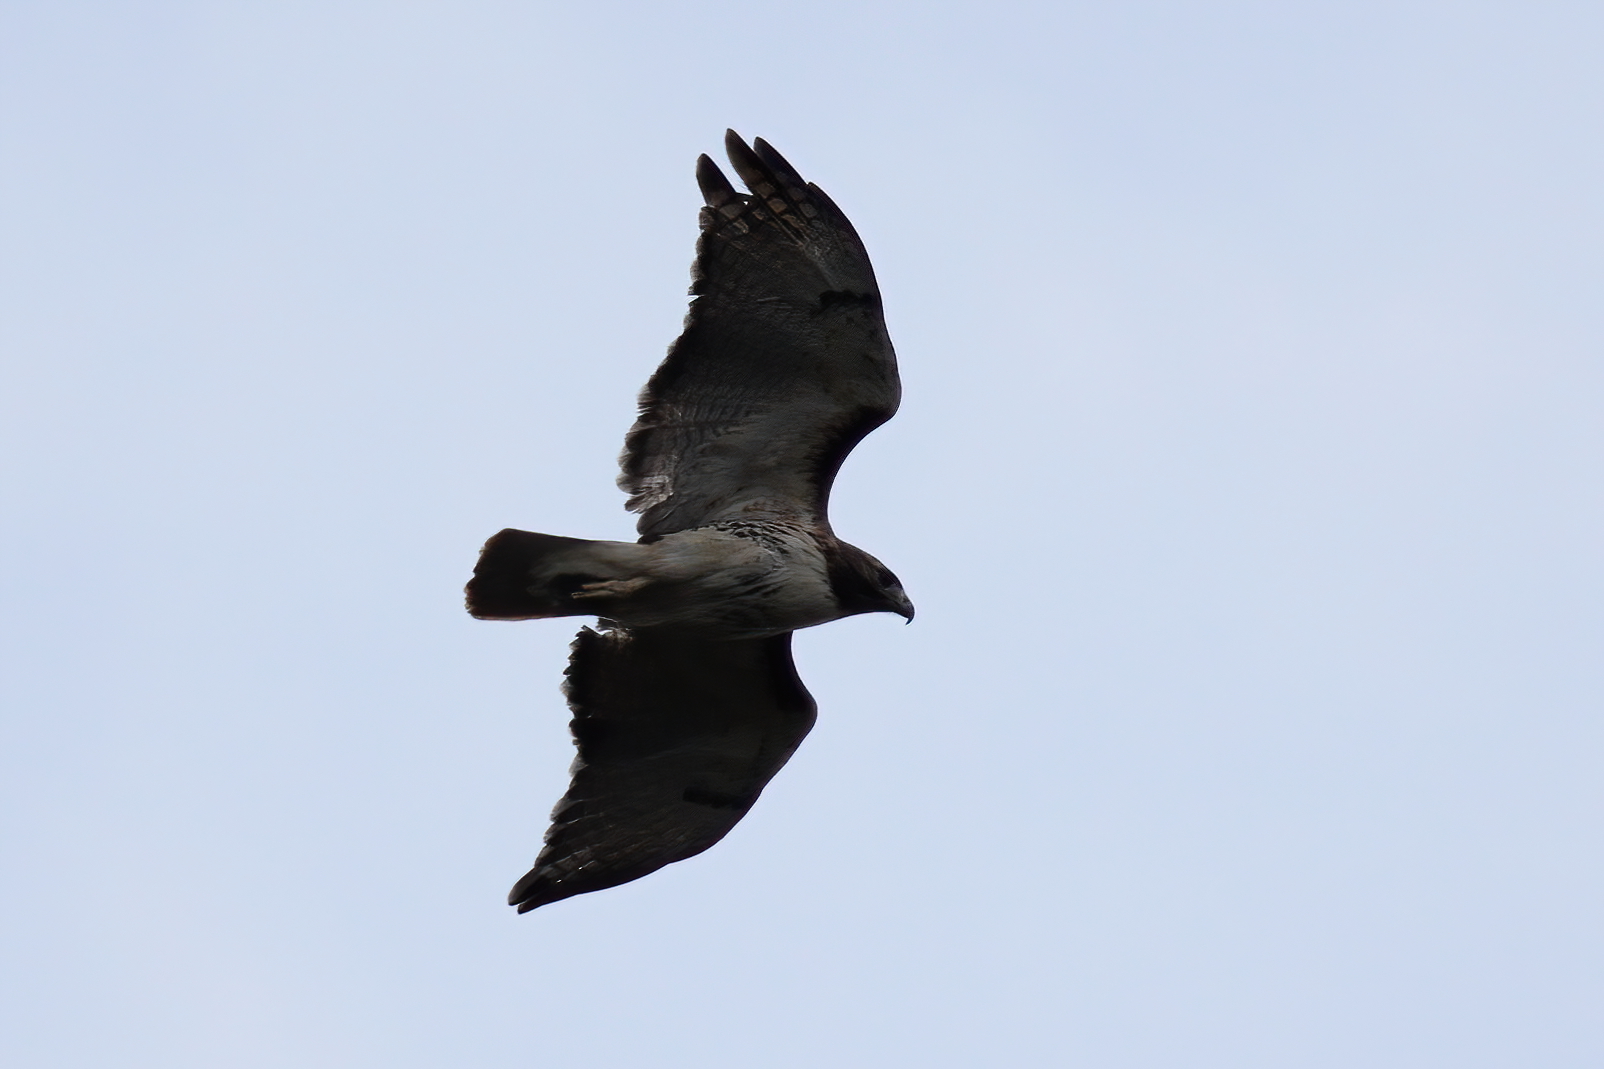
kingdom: Animalia
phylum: Chordata
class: Aves
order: Accipitriformes
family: Accipitridae
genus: Buteo
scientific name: Buteo jamaicensis
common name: Red-tailed hawk
